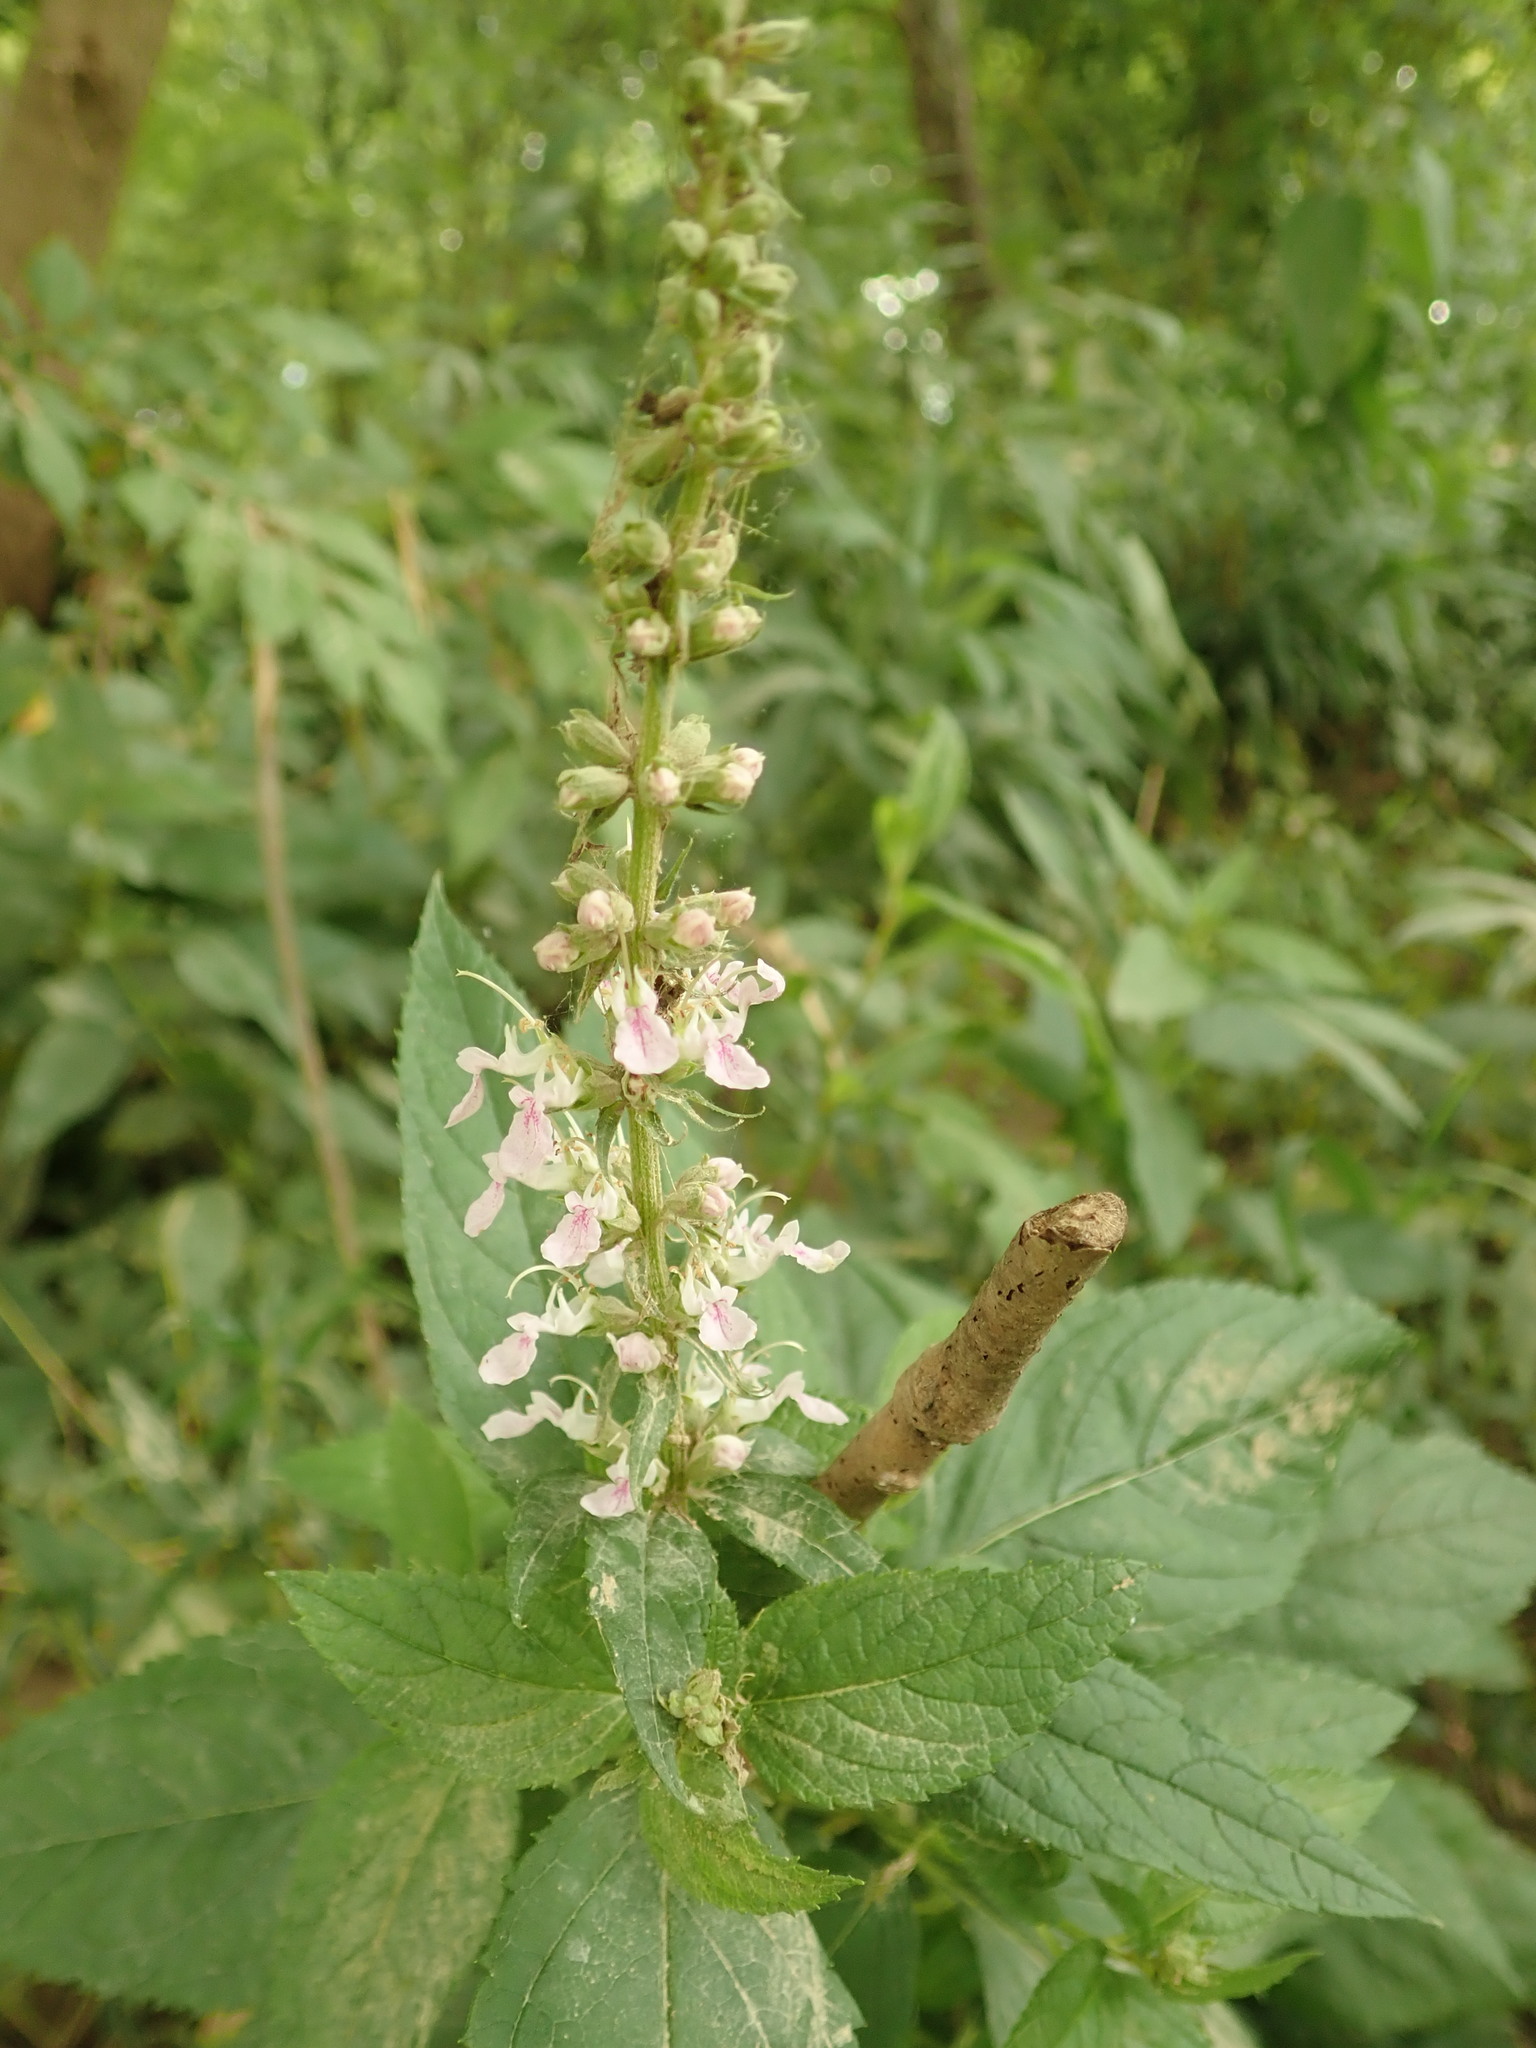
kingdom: Plantae
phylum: Tracheophyta
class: Magnoliopsida
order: Lamiales
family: Lamiaceae
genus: Teucrium
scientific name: Teucrium canadense
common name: American germander
